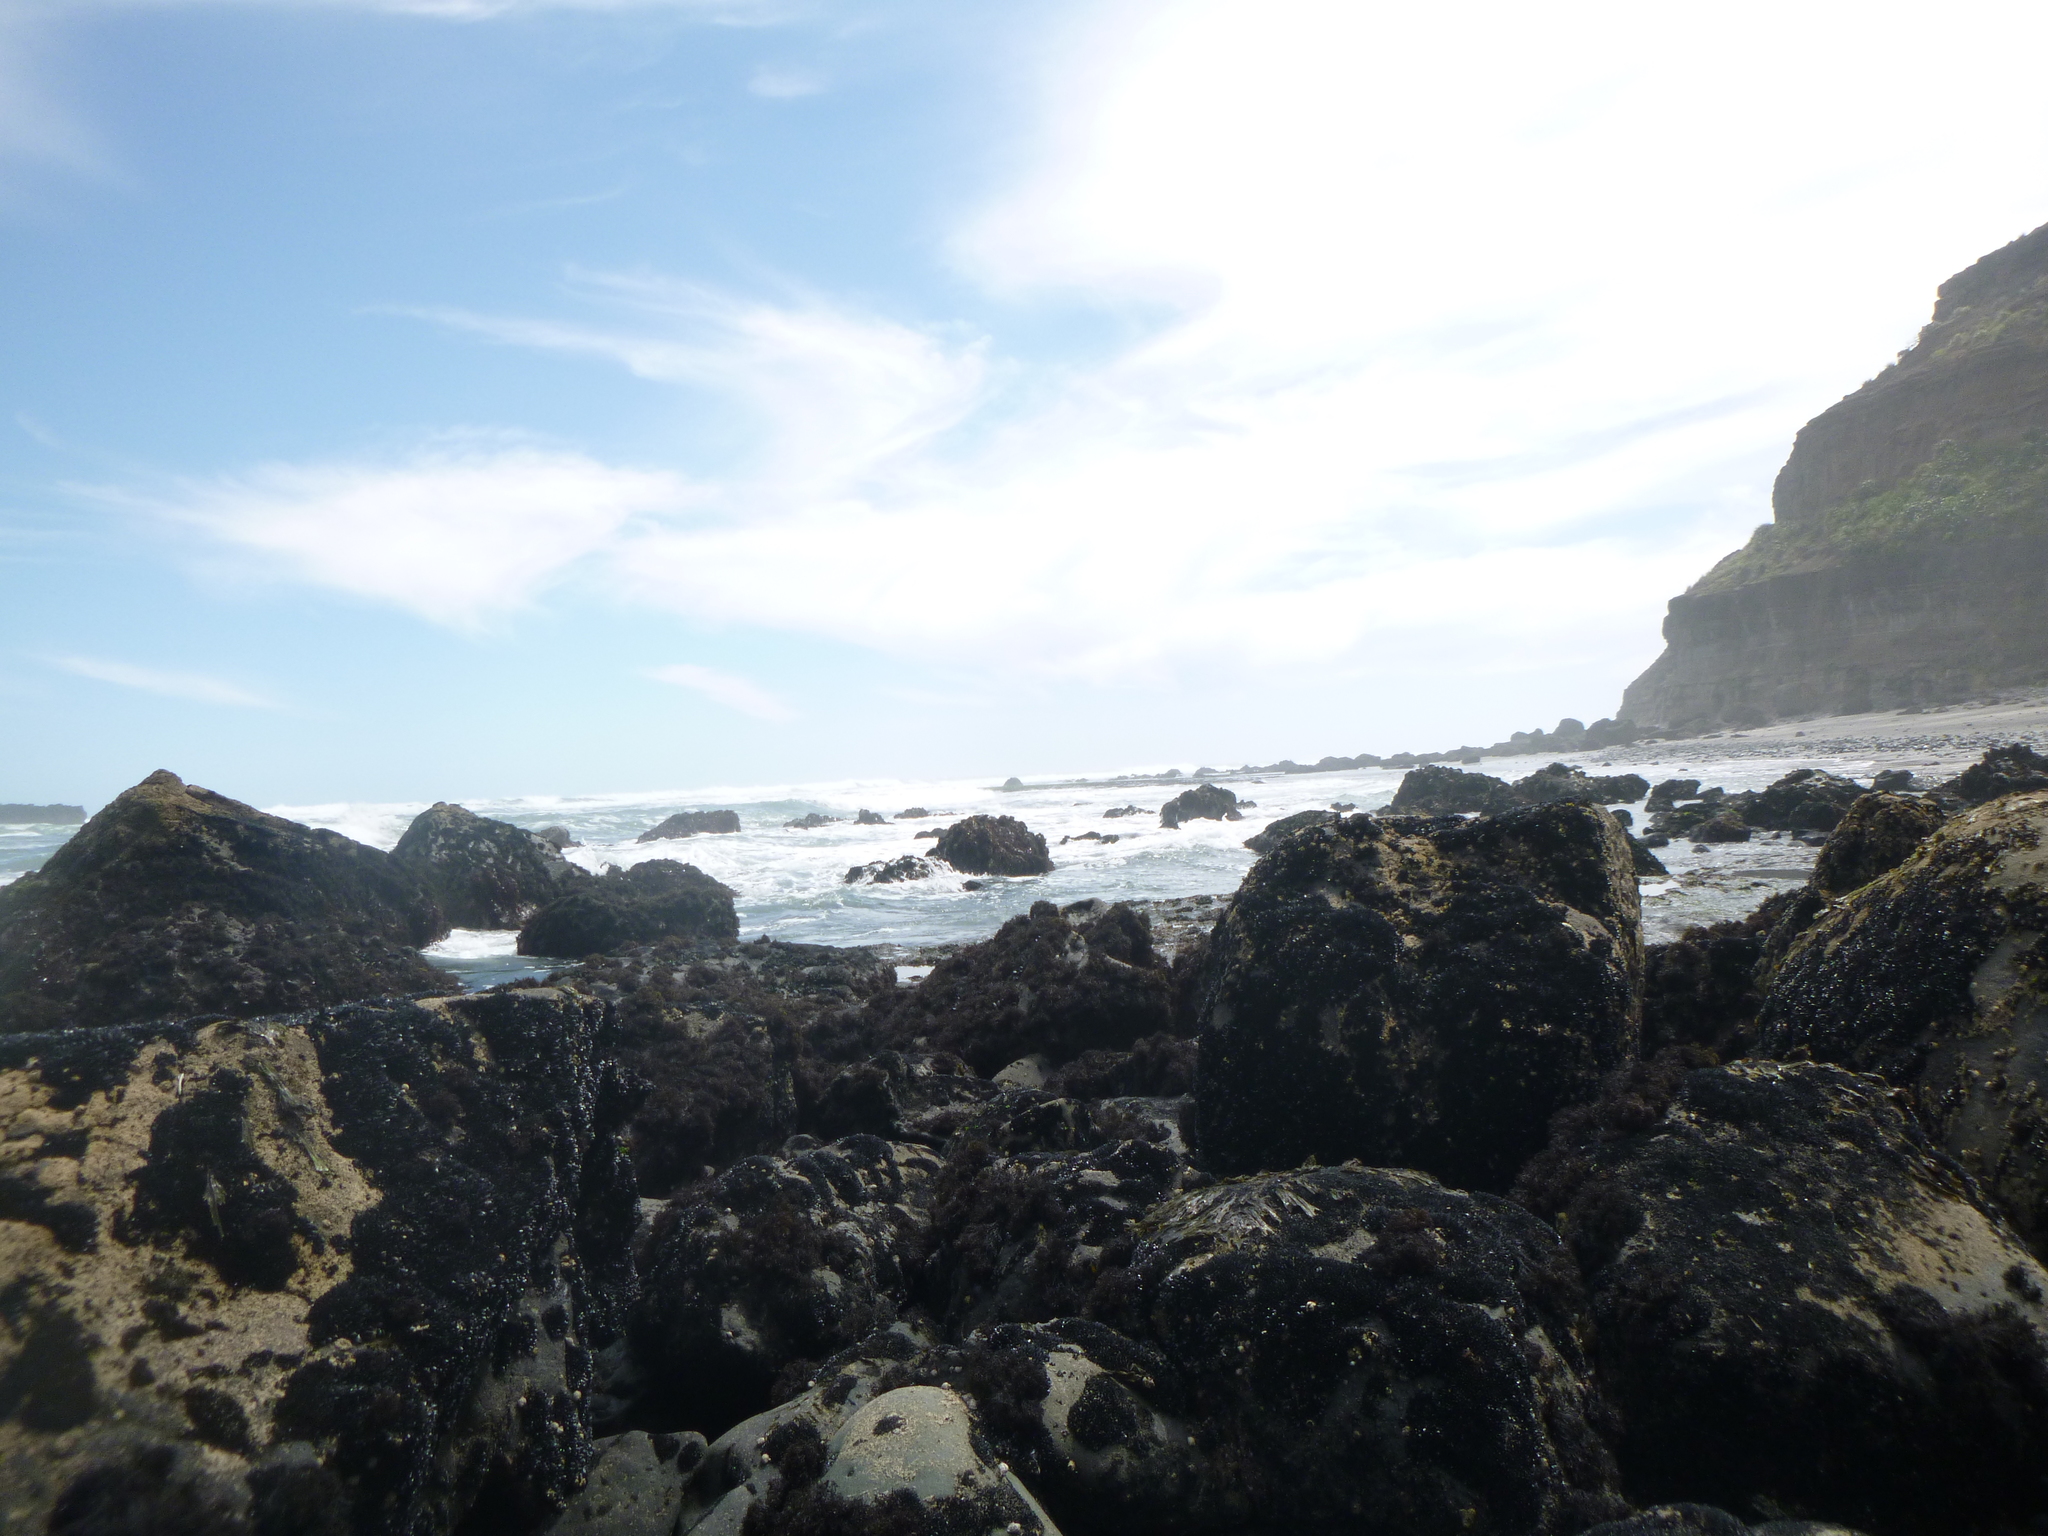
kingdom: Animalia
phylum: Mollusca
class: Bivalvia
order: Mytilida
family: Mytilidae
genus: Xenostrobus
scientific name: Xenostrobus neozelanicus
